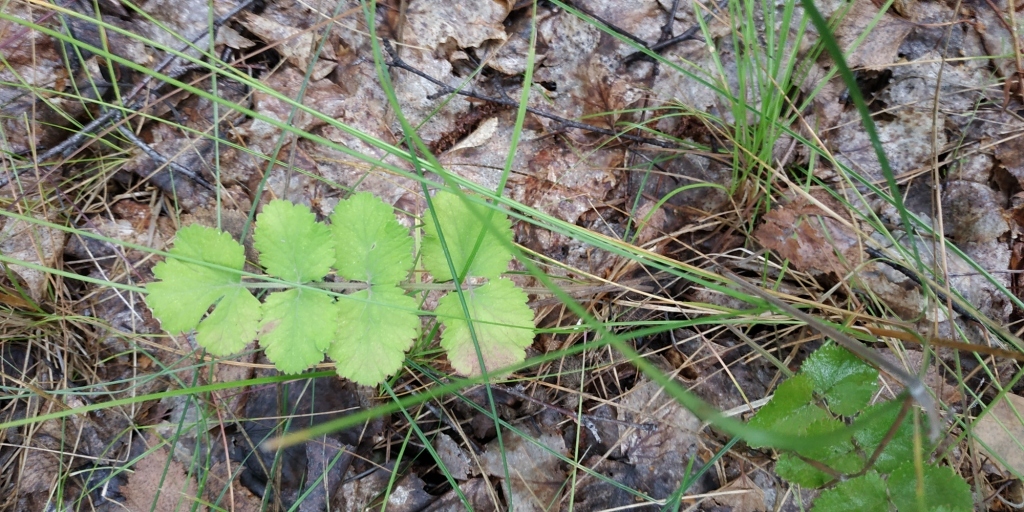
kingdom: Plantae
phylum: Tracheophyta
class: Magnoliopsida
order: Apiales
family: Apiaceae
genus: Pimpinella
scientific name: Pimpinella saxifraga
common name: Burnet-saxifrage
